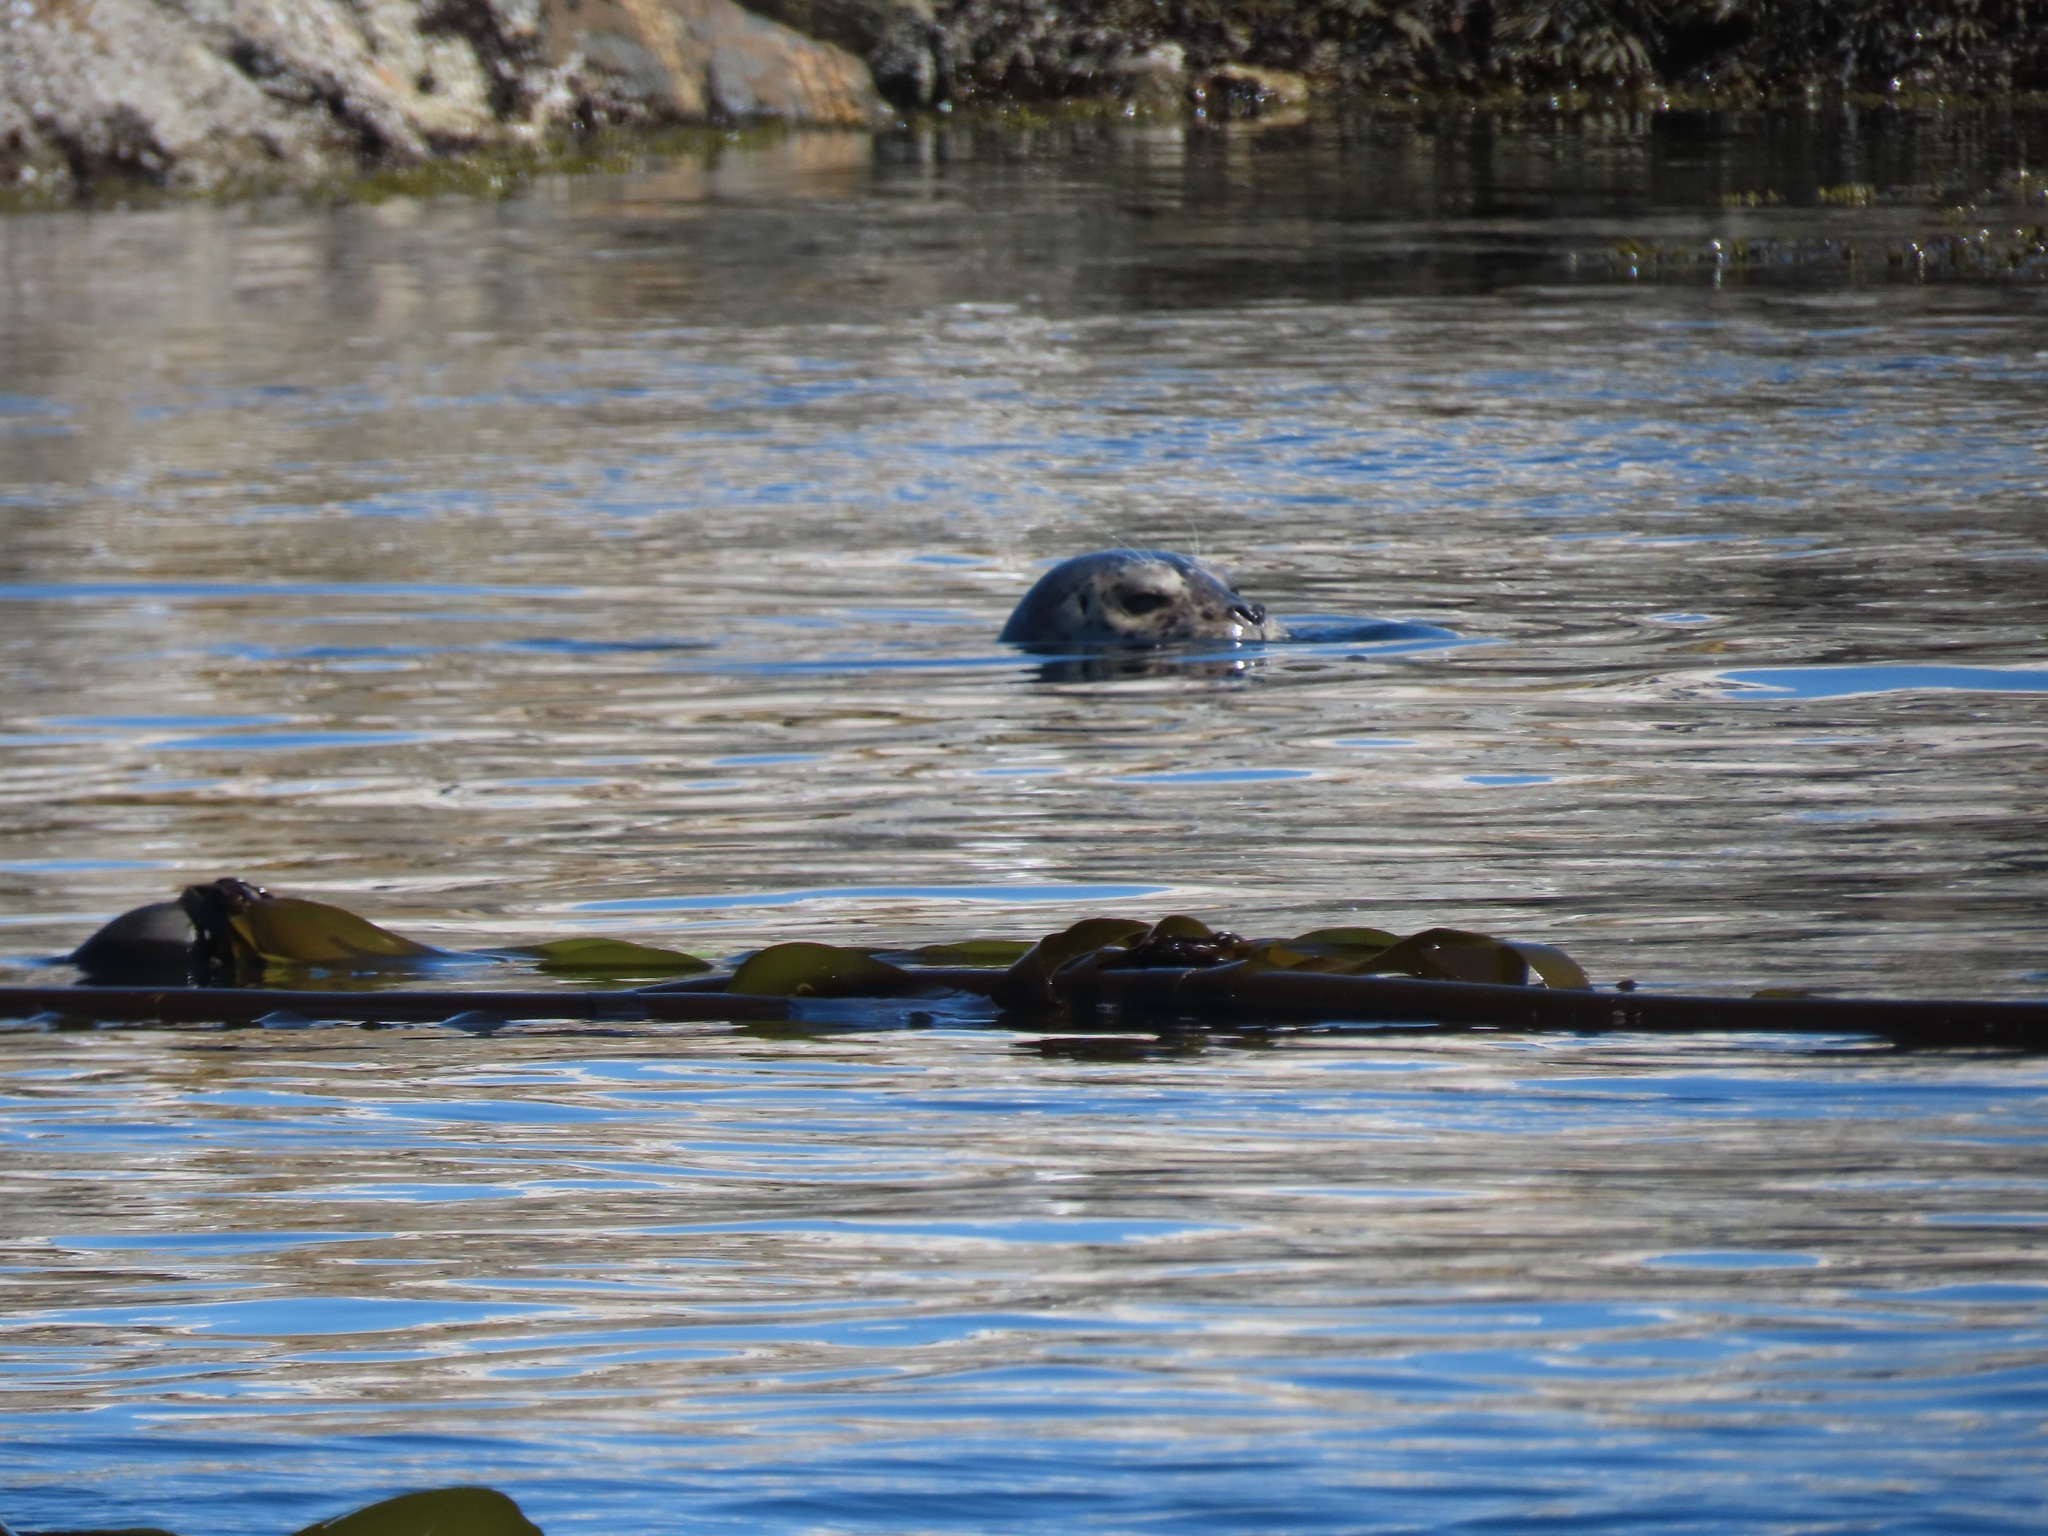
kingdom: Animalia
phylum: Chordata
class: Mammalia
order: Carnivora
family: Phocidae
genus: Phoca
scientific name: Phoca vitulina
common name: Harbor seal
